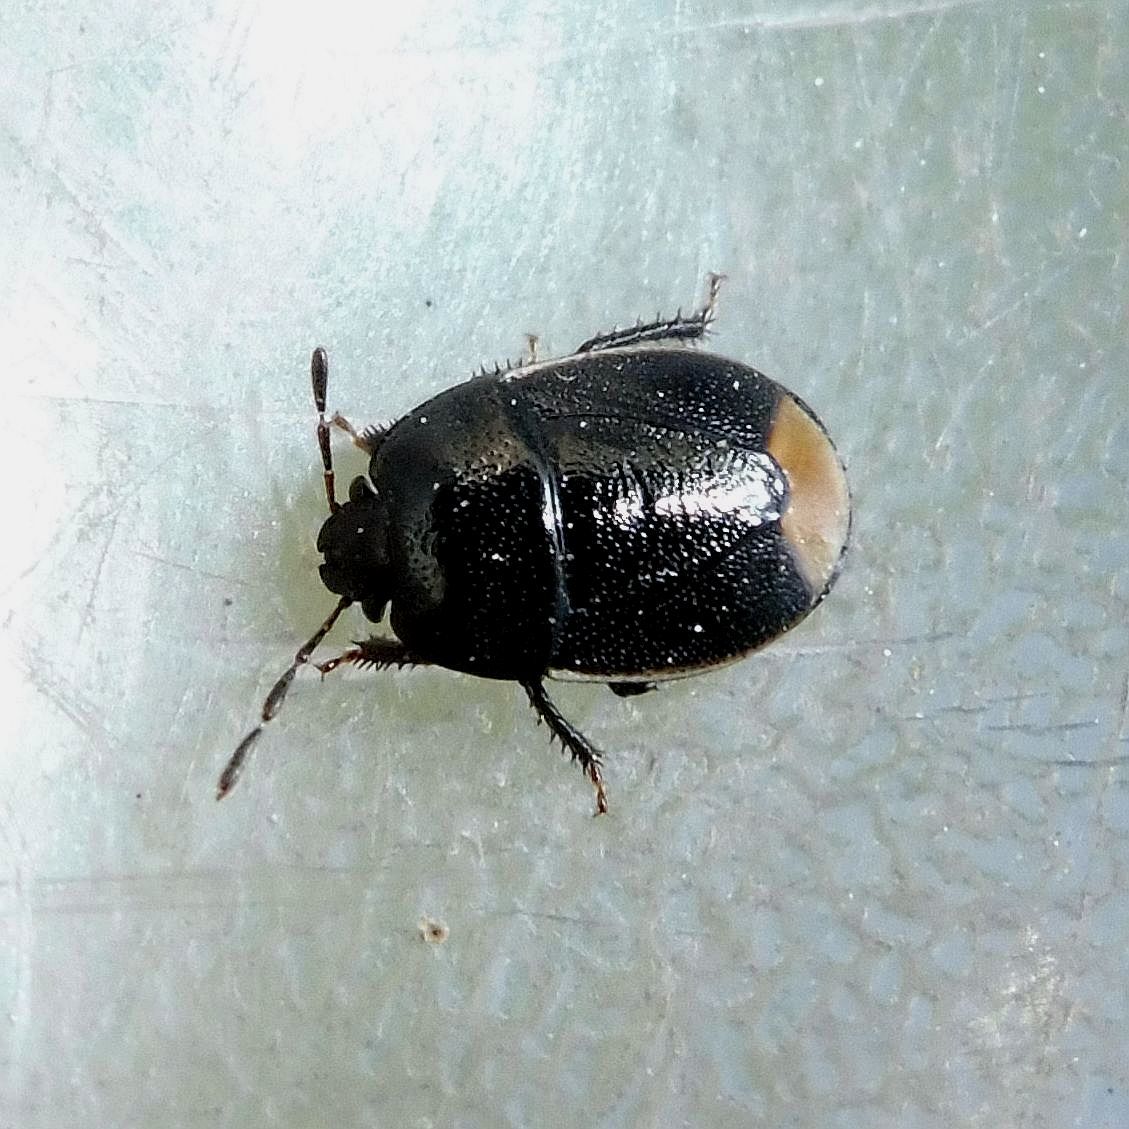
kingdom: Animalia
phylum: Arthropoda
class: Insecta
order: Hemiptera
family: Cydnidae
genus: Legnotus
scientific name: Legnotus limbosus
